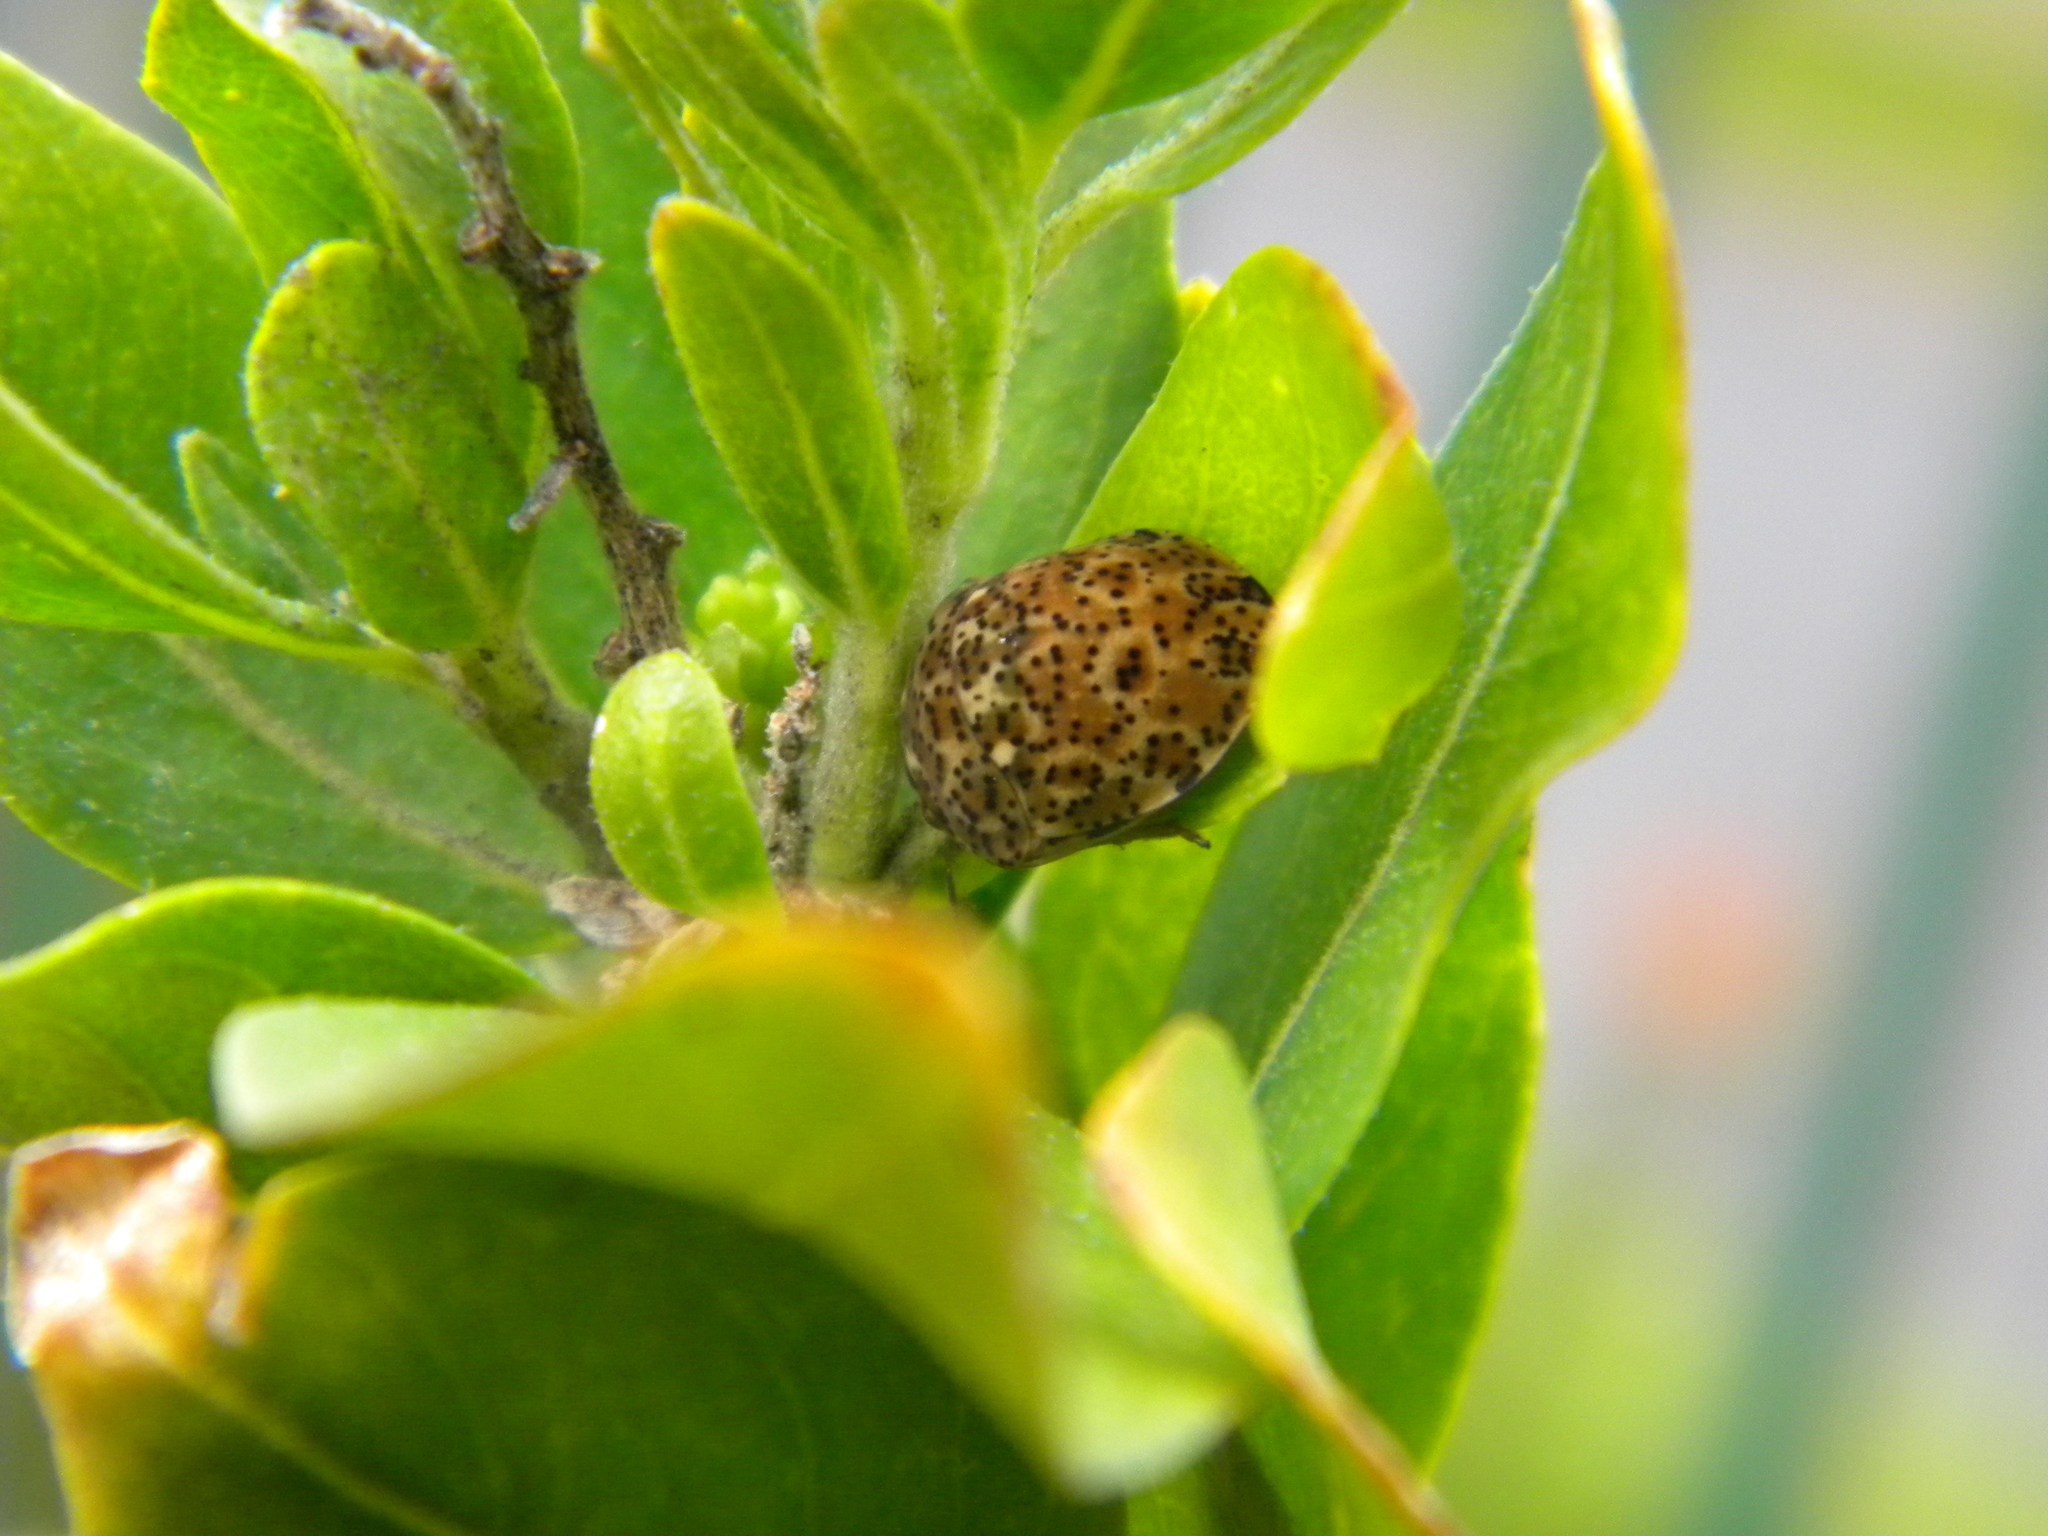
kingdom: Animalia
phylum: Arthropoda
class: Insecta
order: Hemiptera
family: Scutelleridae
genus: Sphaerocoris
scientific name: Sphaerocoris
